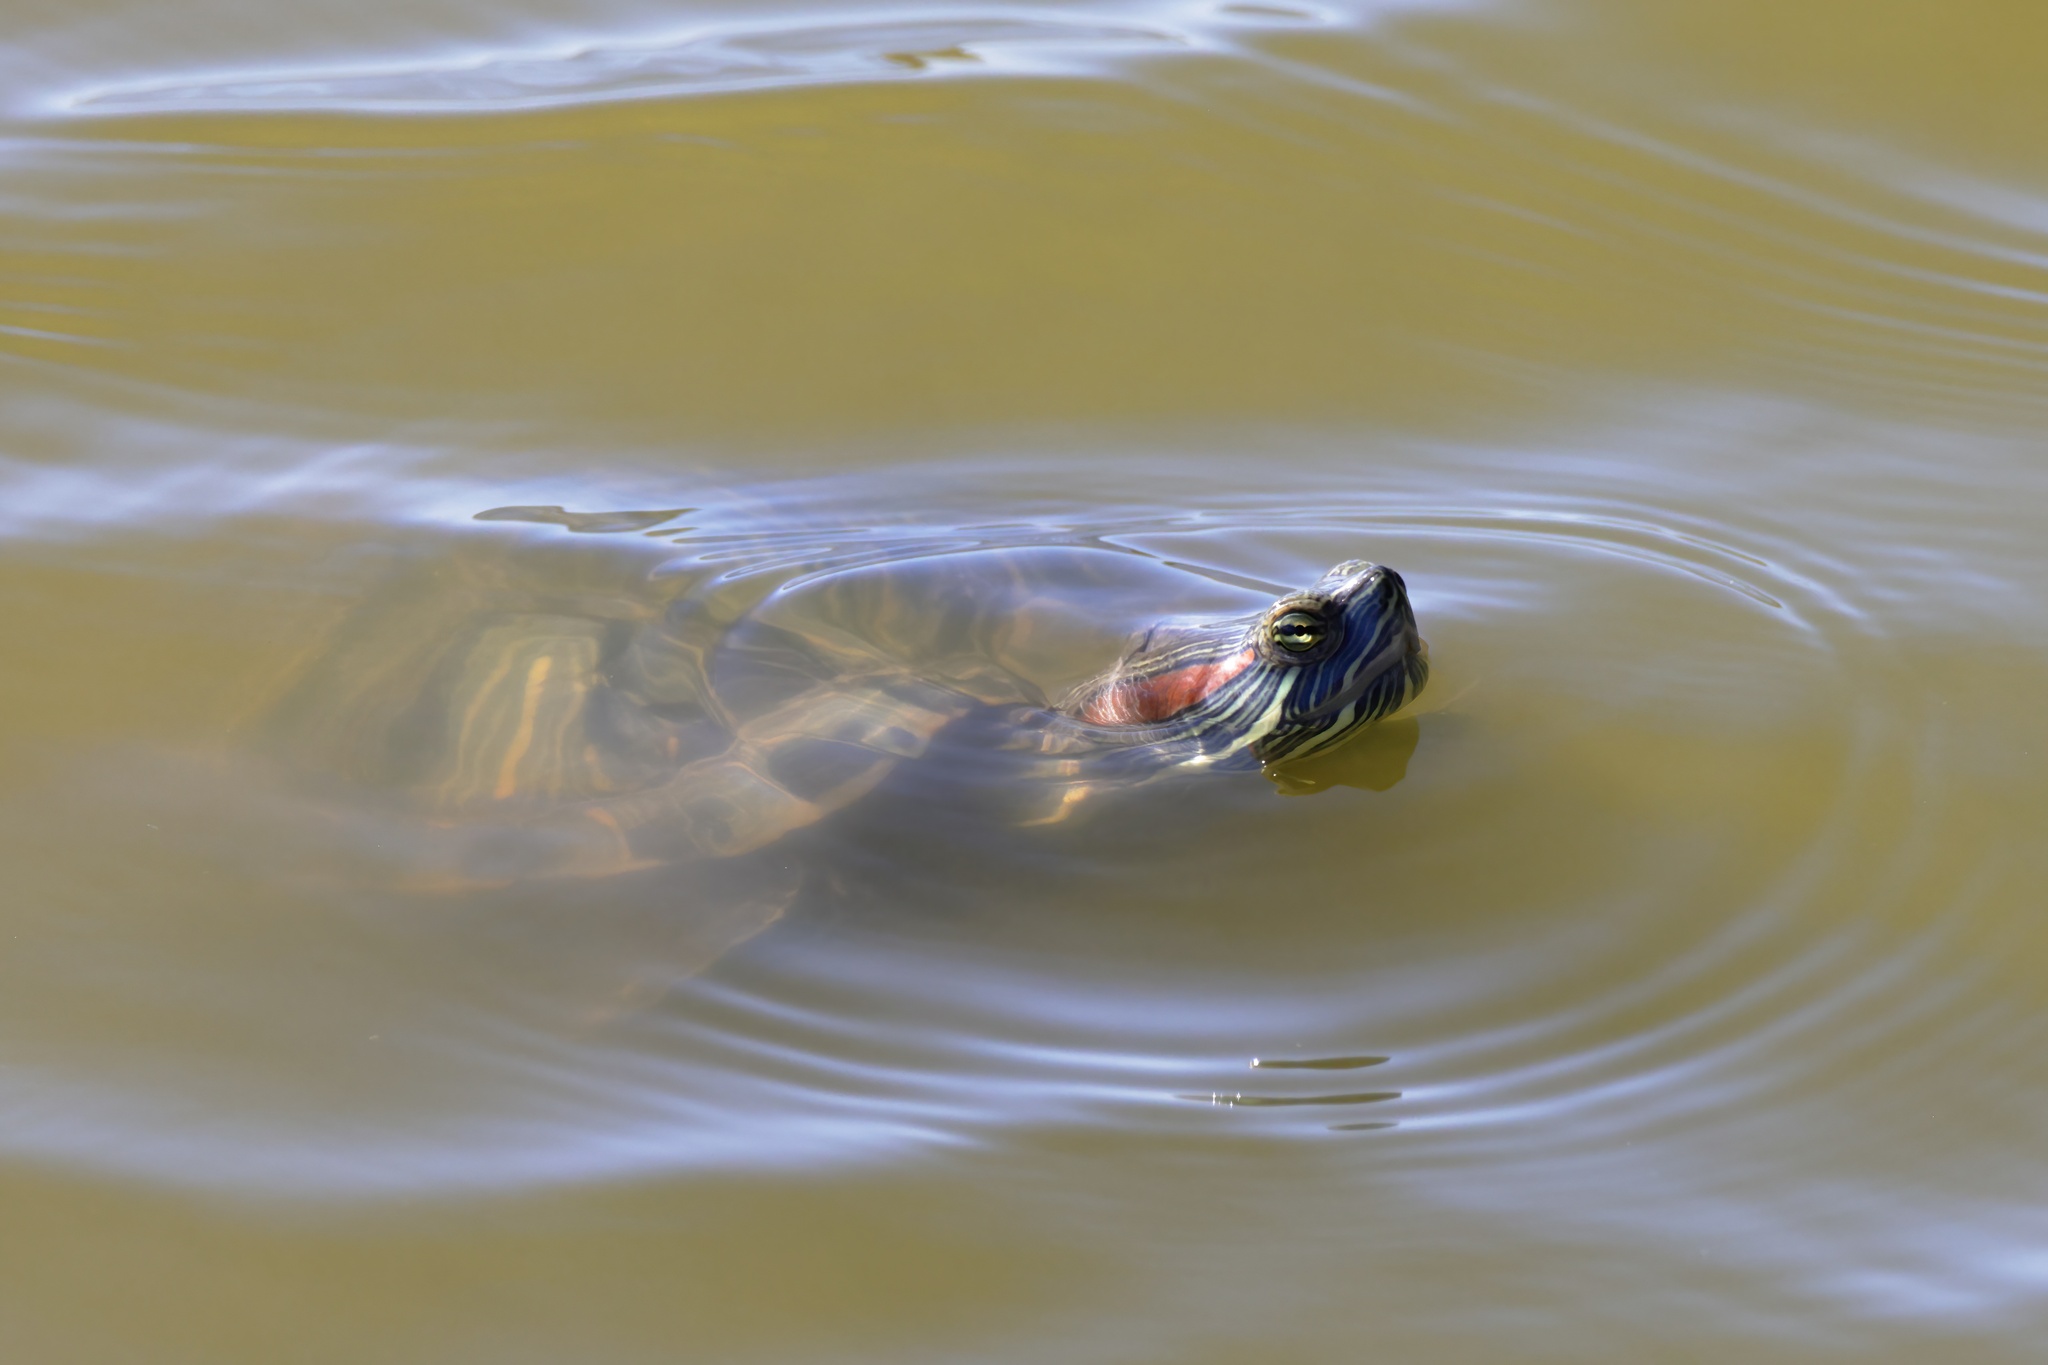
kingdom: Animalia
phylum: Chordata
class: Testudines
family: Emydidae
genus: Trachemys
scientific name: Trachemys scripta
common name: Slider
